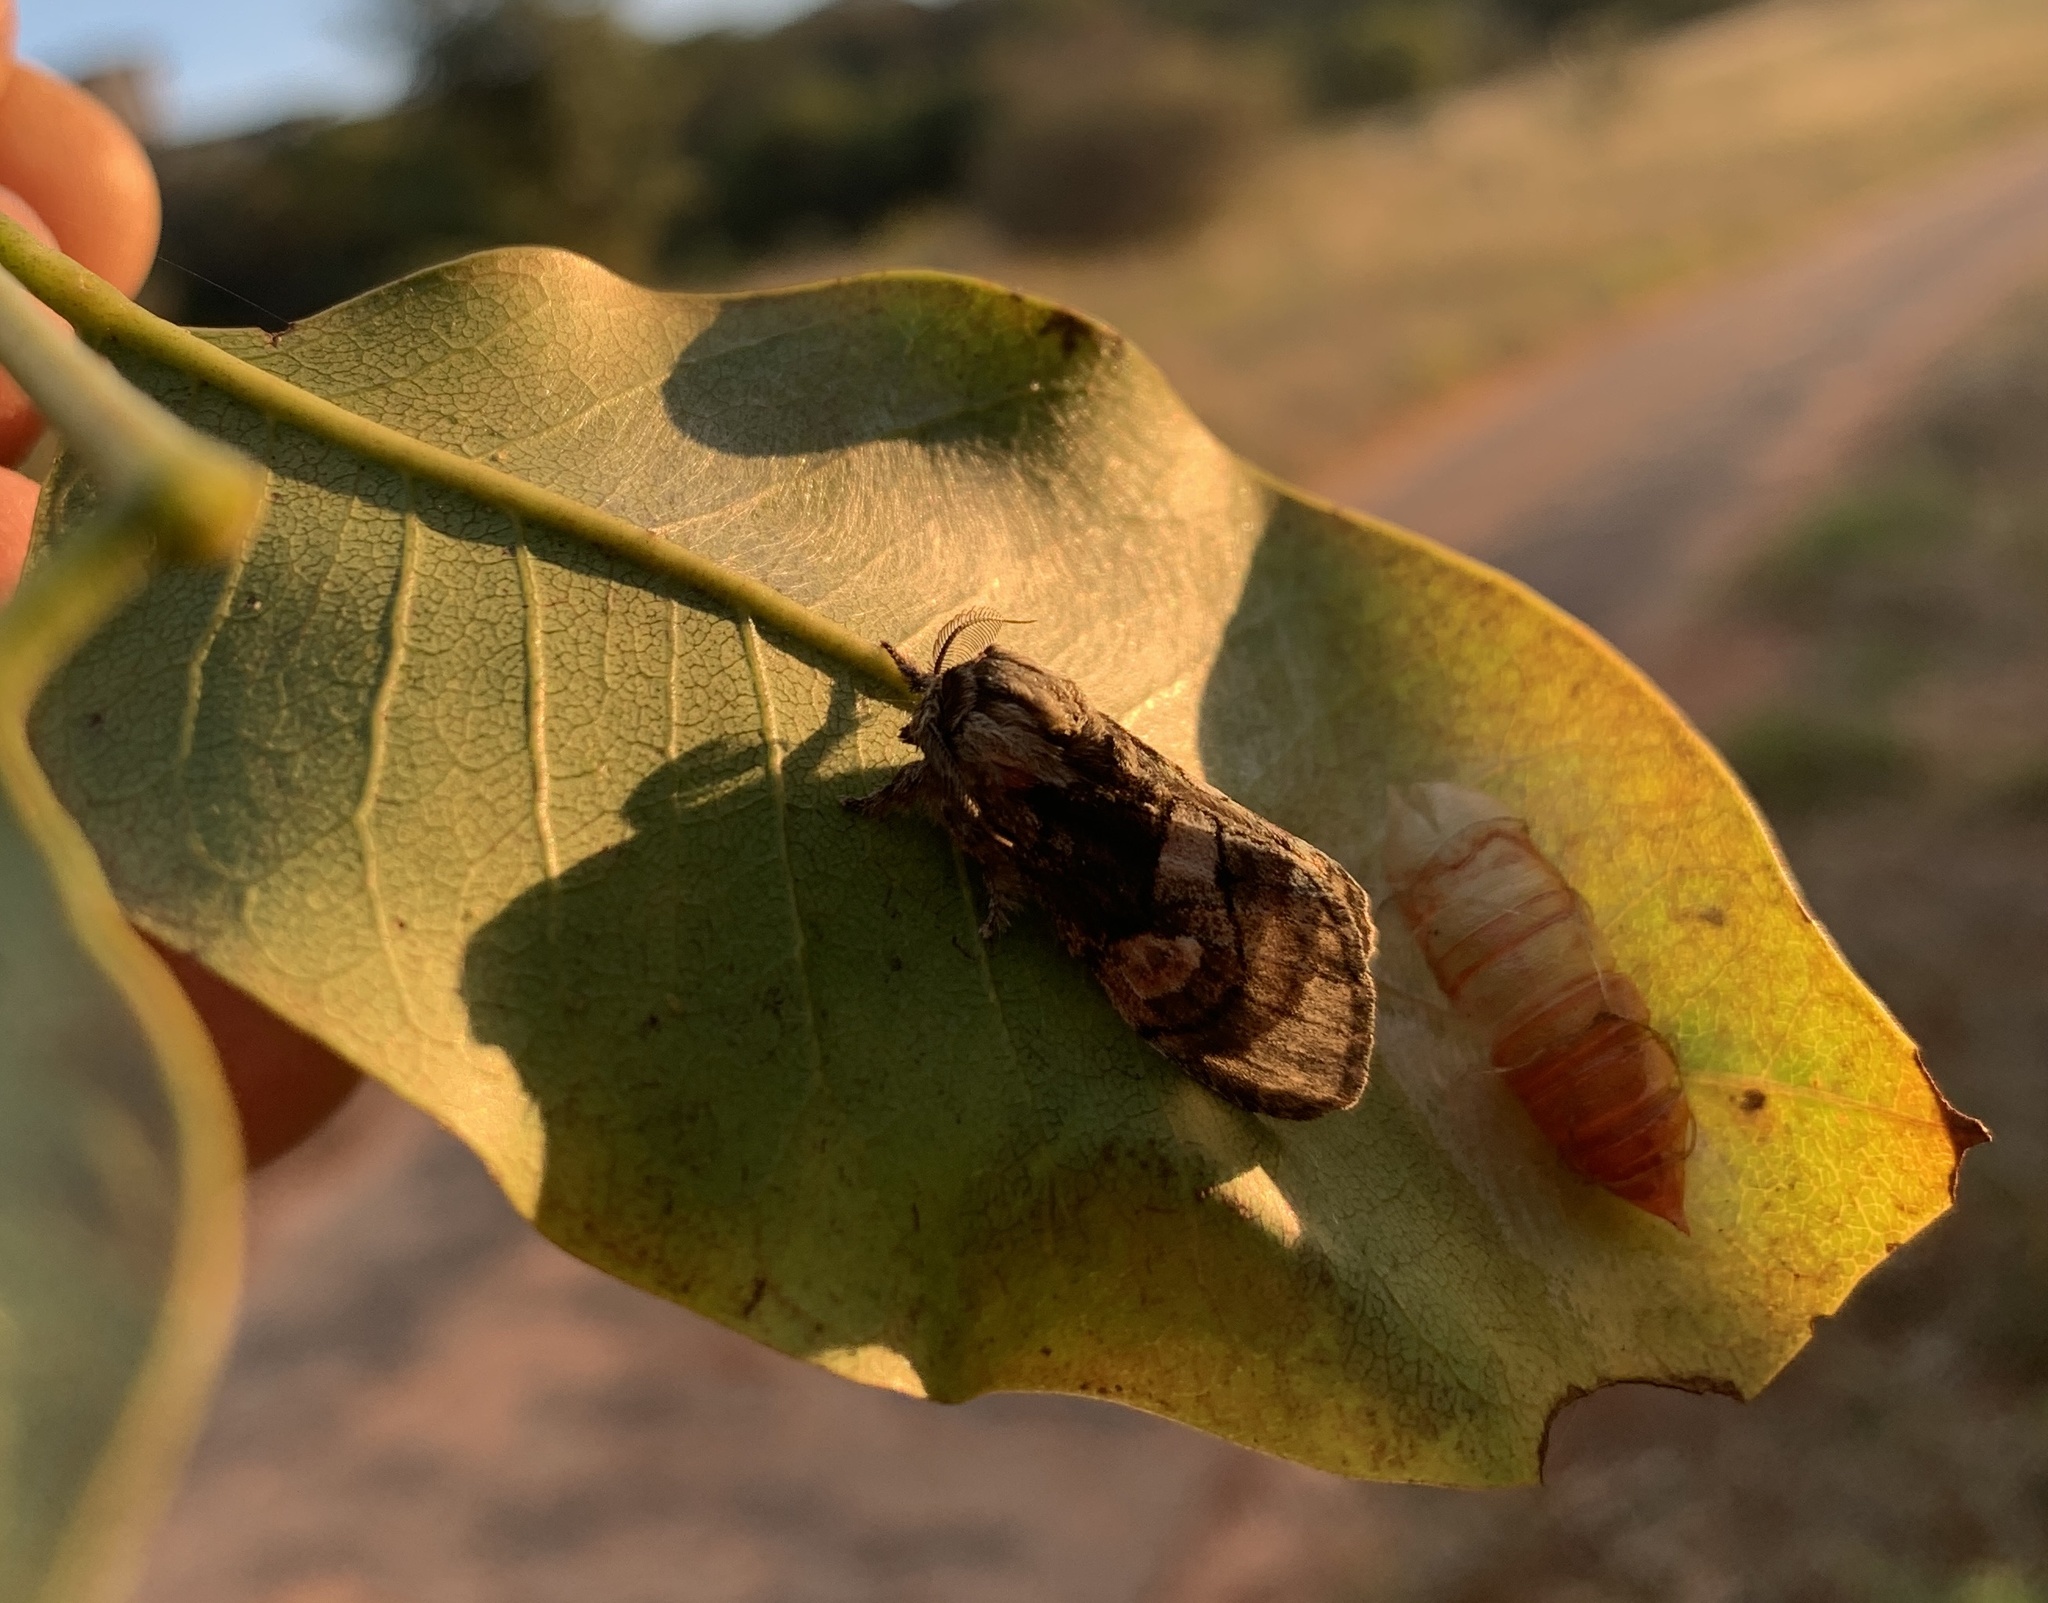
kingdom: Animalia
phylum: Arthropoda
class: Insecta
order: Lepidoptera
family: Notodontidae
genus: Rhenea
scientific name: Rhenea michii
